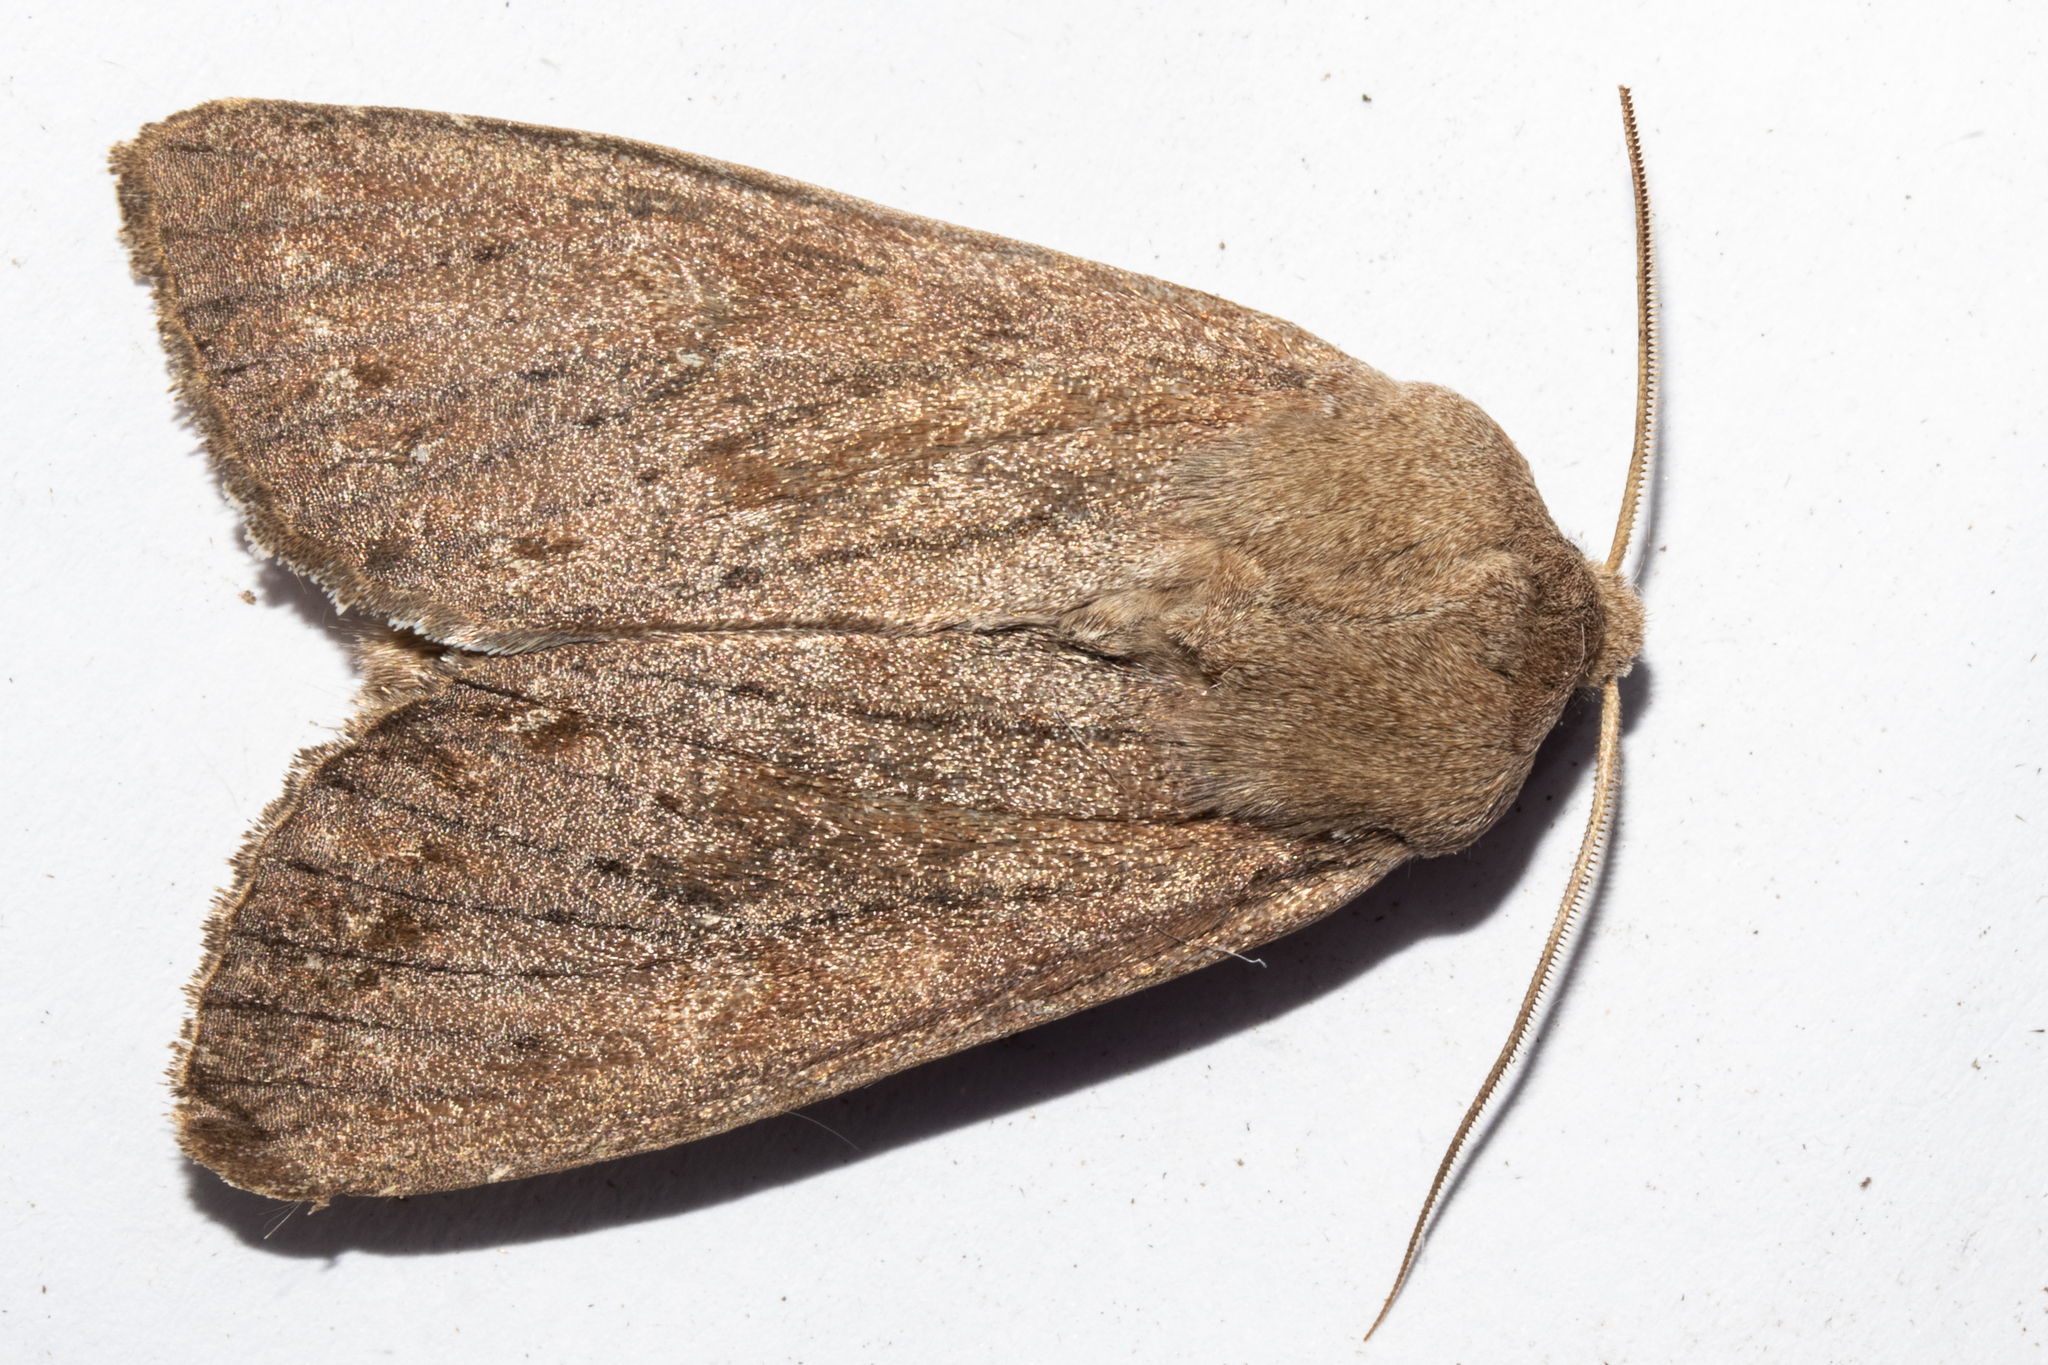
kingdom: Animalia
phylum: Arthropoda
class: Insecta
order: Lepidoptera
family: Noctuidae
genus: Ichneutica
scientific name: Ichneutica nullifera
